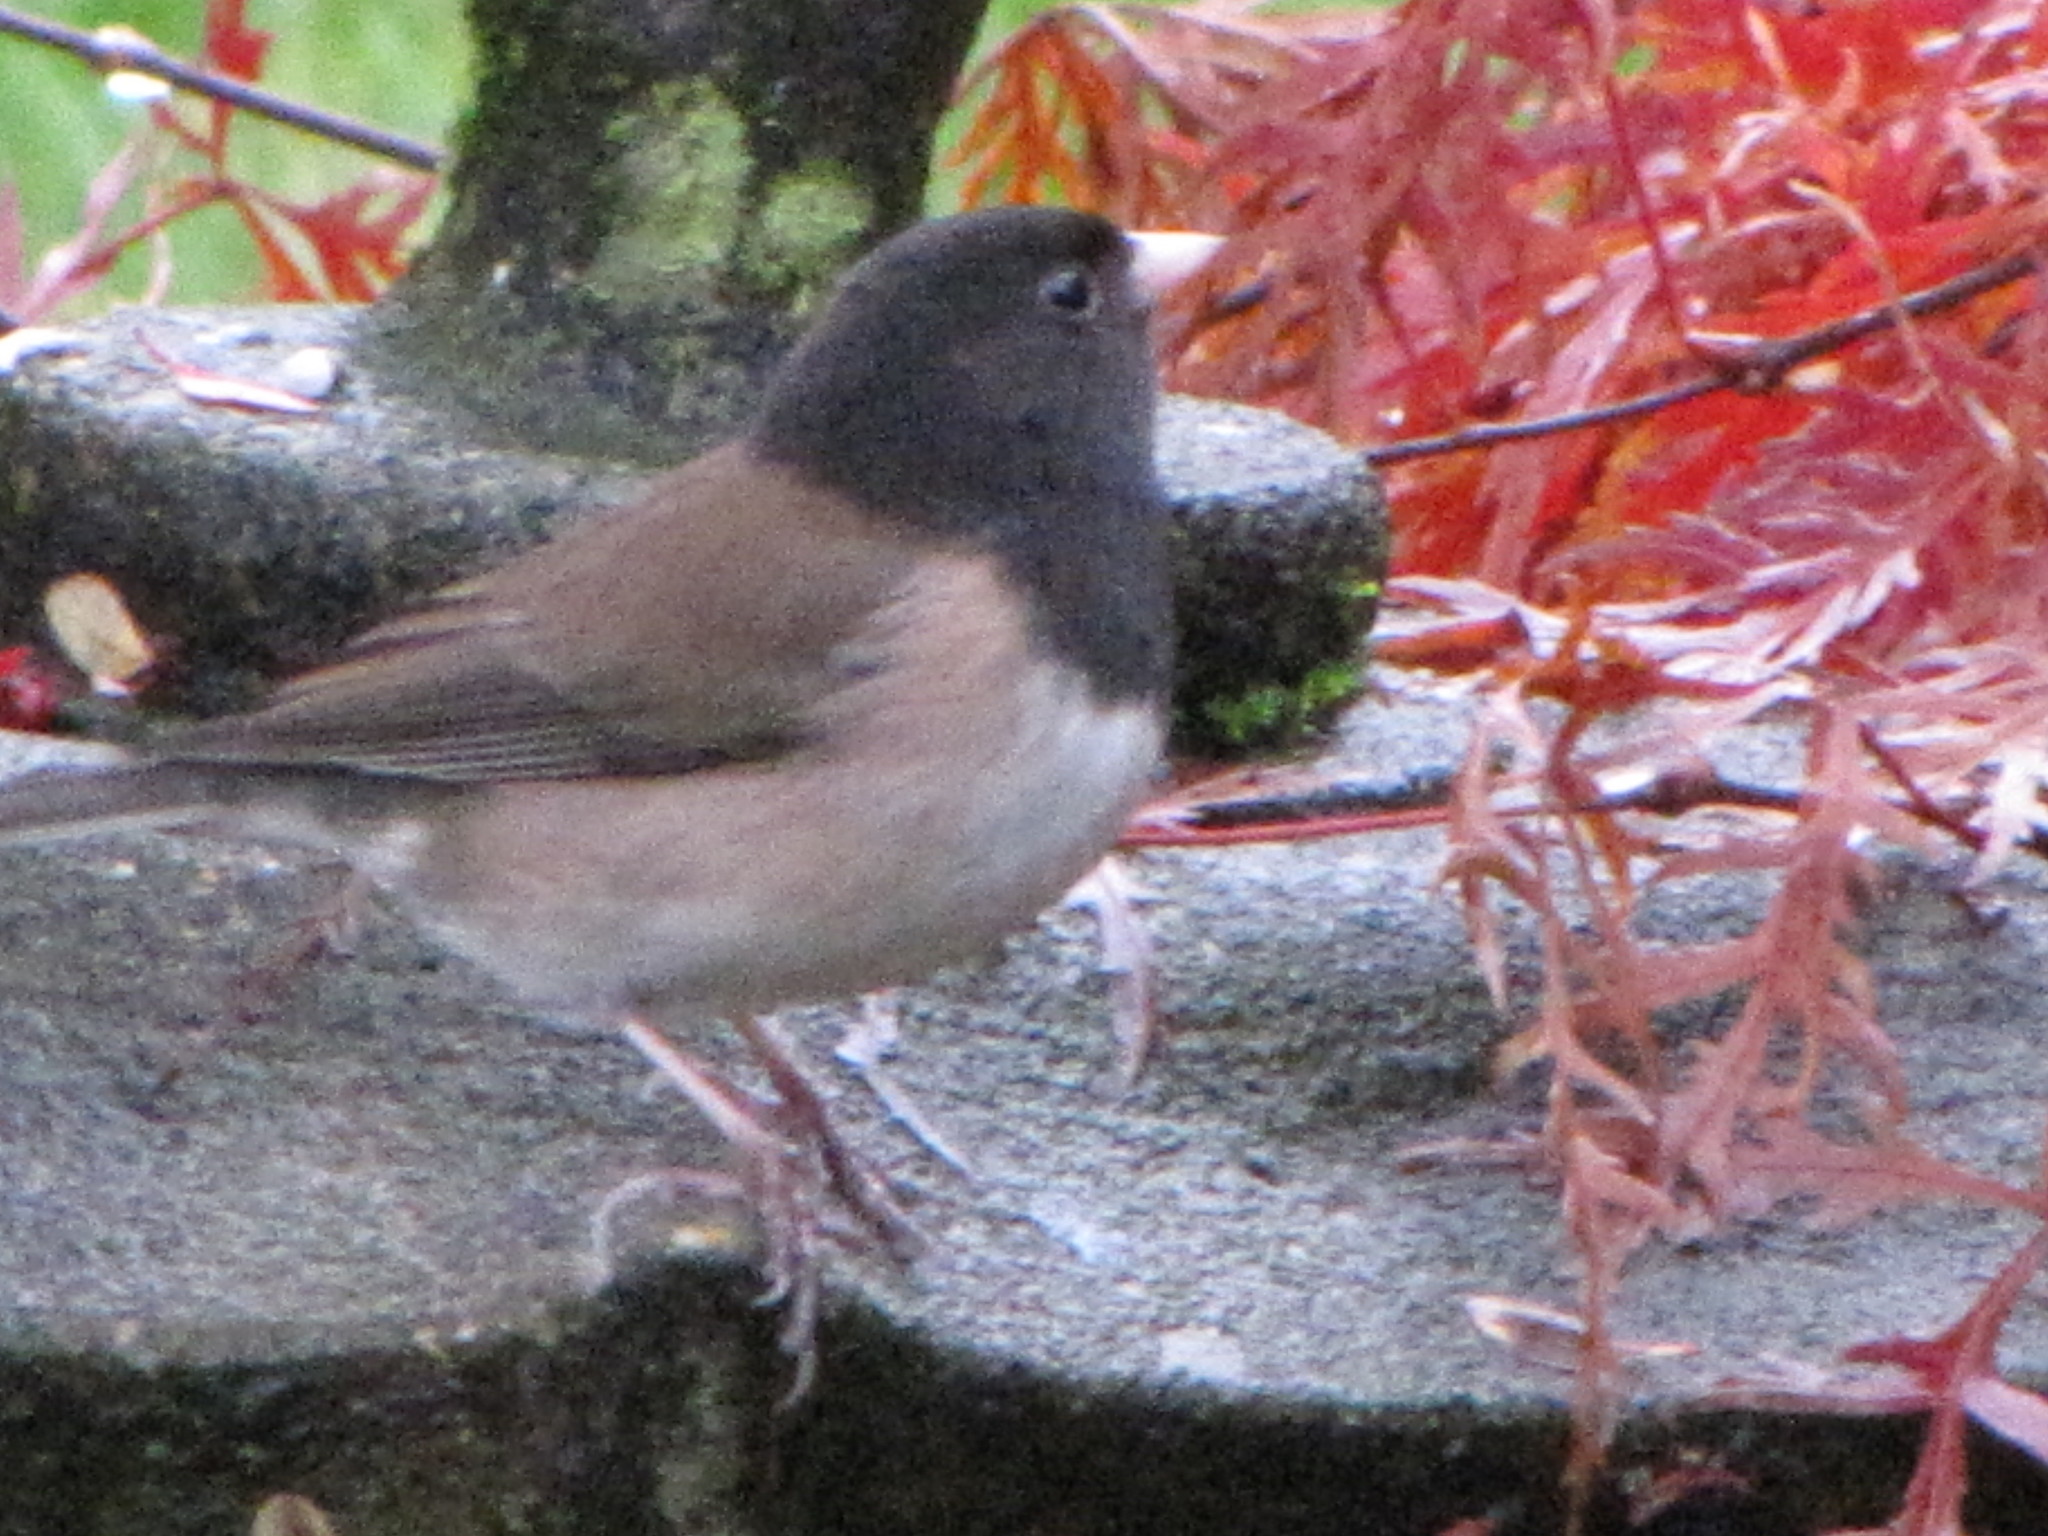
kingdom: Animalia
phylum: Chordata
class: Aves
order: Passeriformes
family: Passerellidae
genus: Junco
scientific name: Junco hyemalis
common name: Dark-eyed junco
